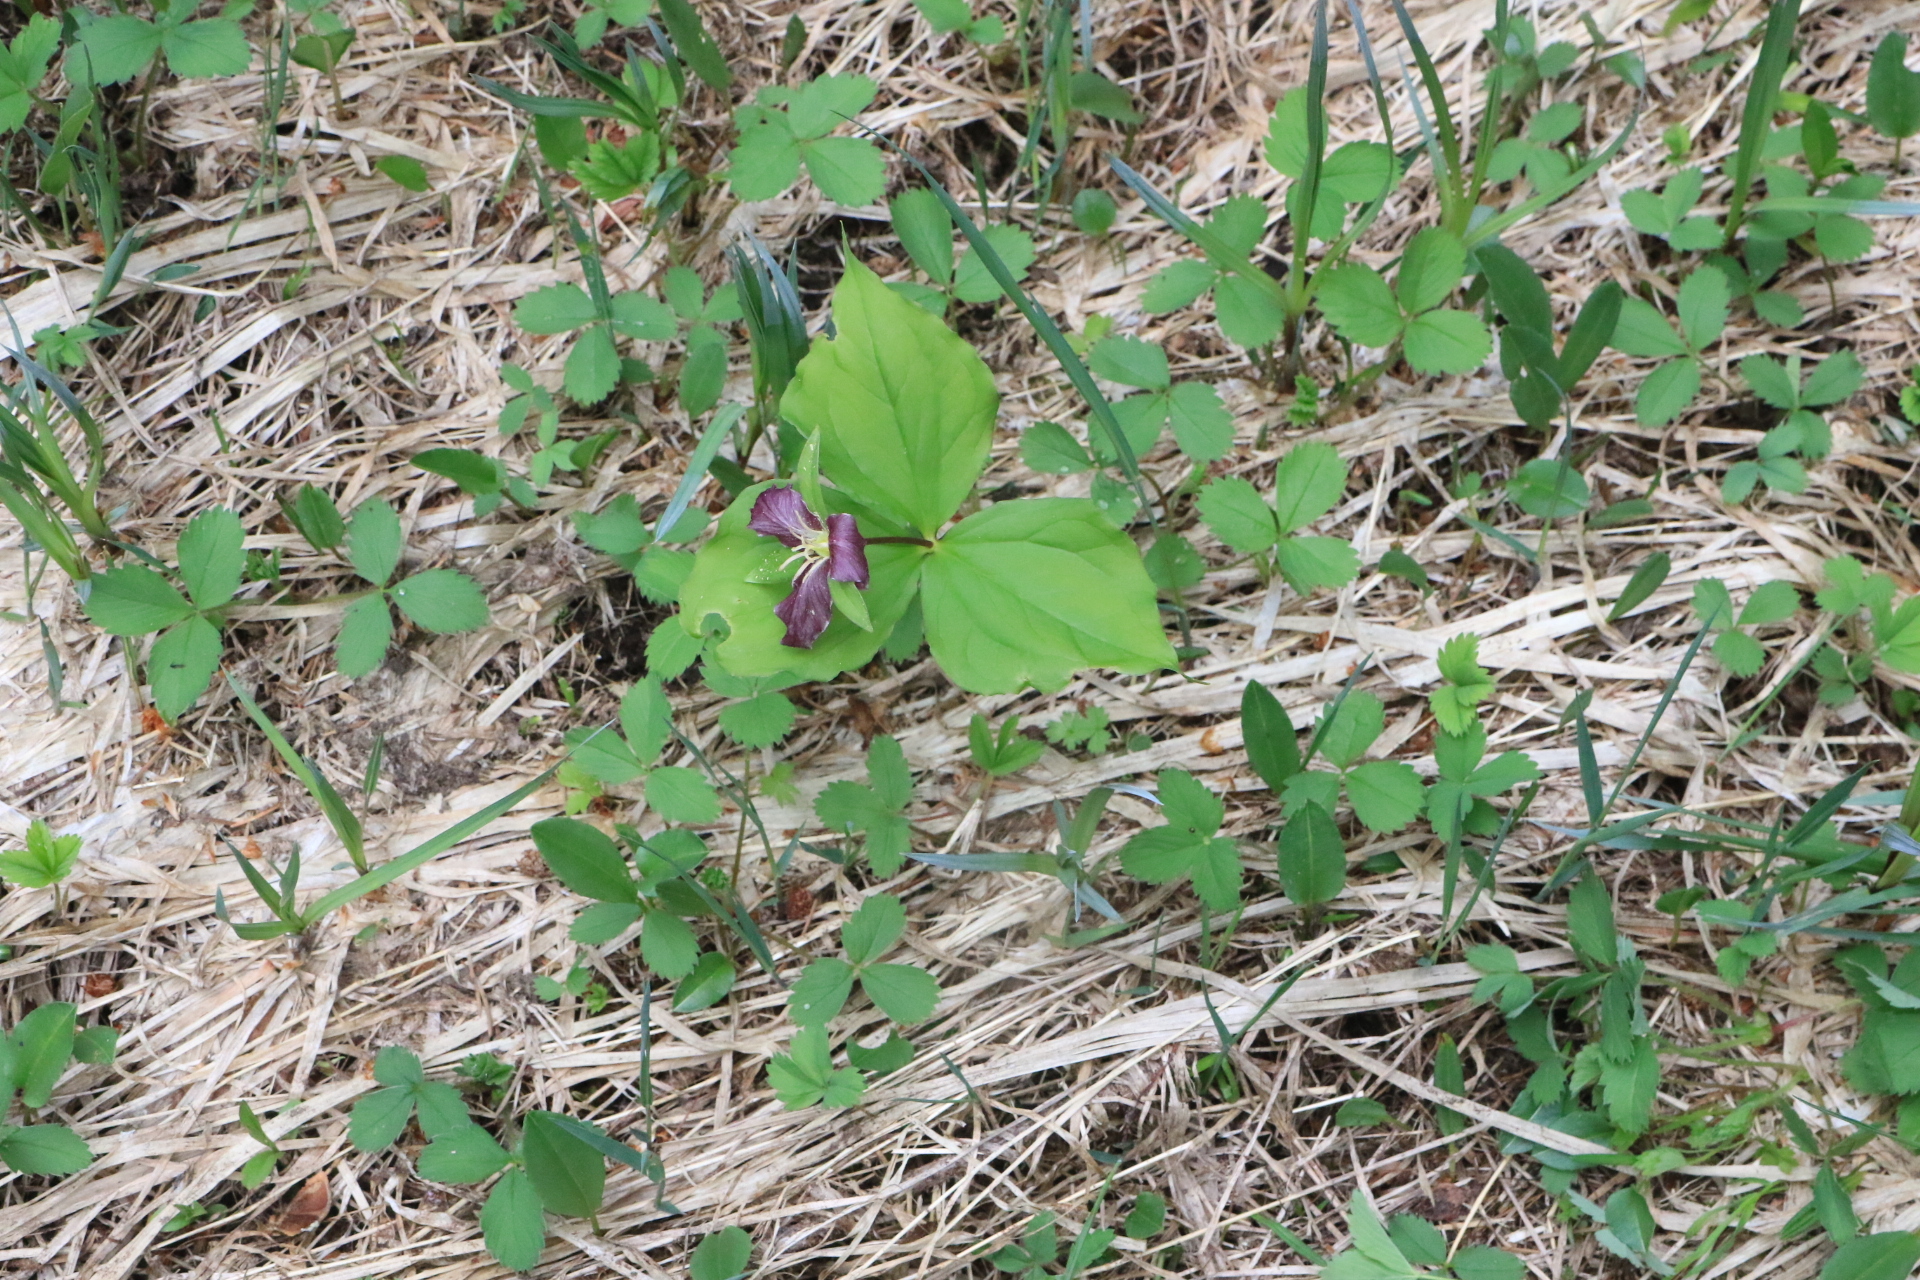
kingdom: Plantae
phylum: Tracheophyta
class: Liliopsida
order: Liliales
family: Melanthiaceae
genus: Trillium
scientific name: Trillium ovatum
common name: Pacific trillium
